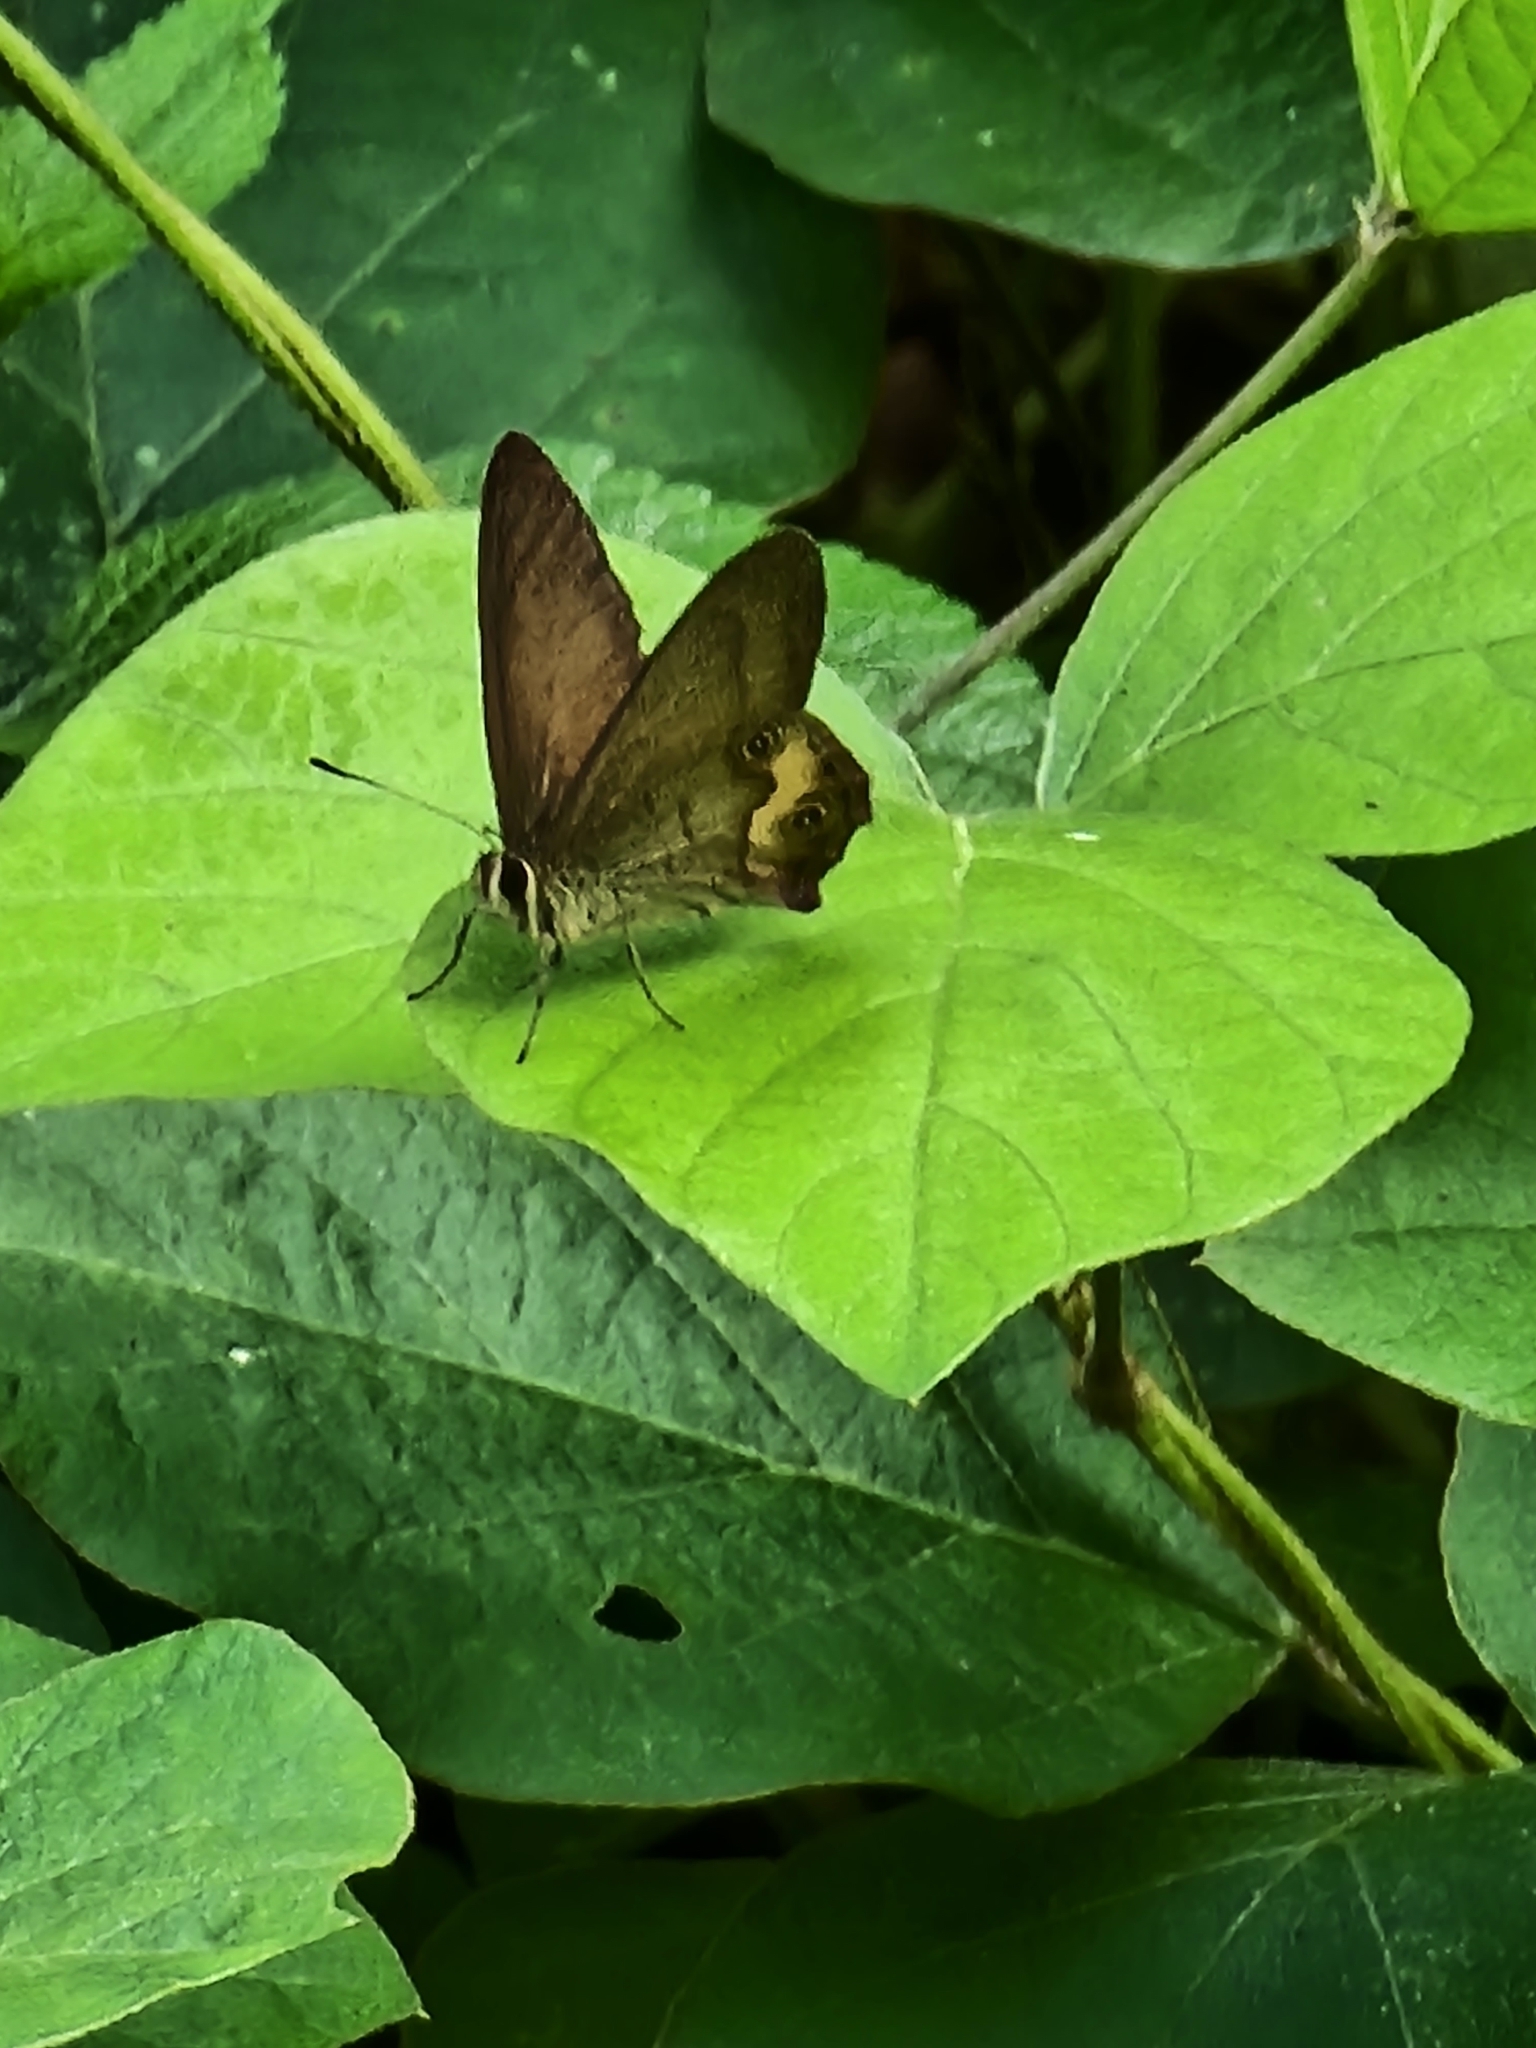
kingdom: Animalia
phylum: Arthropoda
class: Insecta
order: Lepidoptera
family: Nymphalidae
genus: Hypocysta
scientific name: Hypocysta metirius
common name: Brown ringlet
